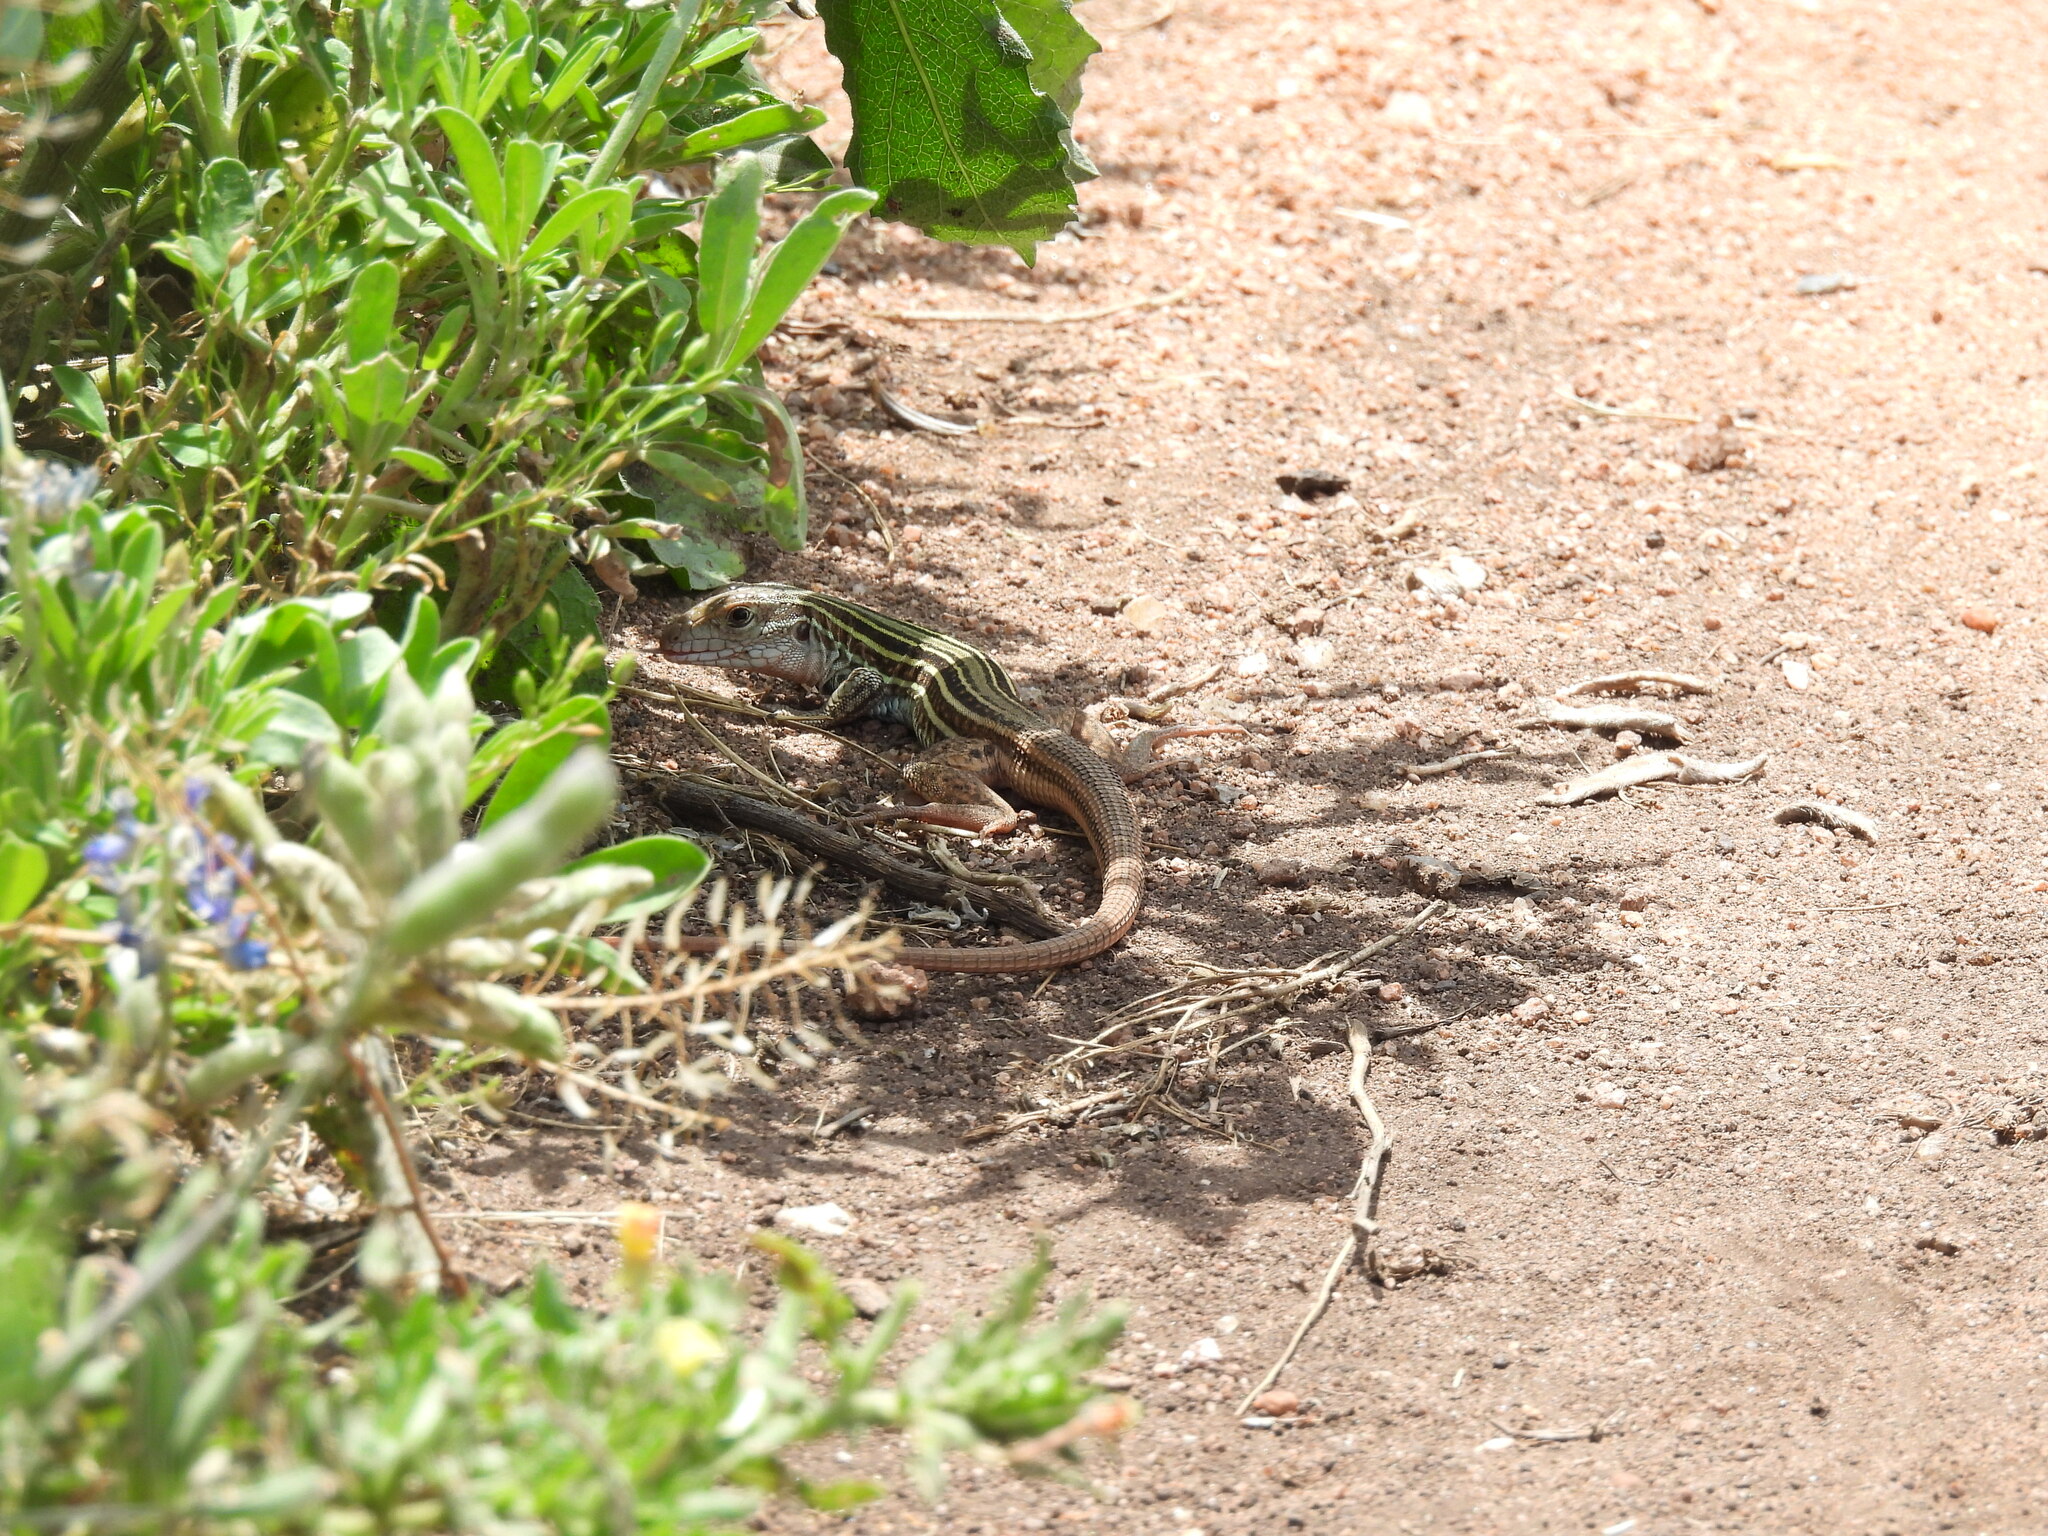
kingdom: Animalia
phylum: Chordata
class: Squamata
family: Teiidae
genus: Aspidoscelis
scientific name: Aspidoscelis gularis
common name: Eastern spotted whiptail
